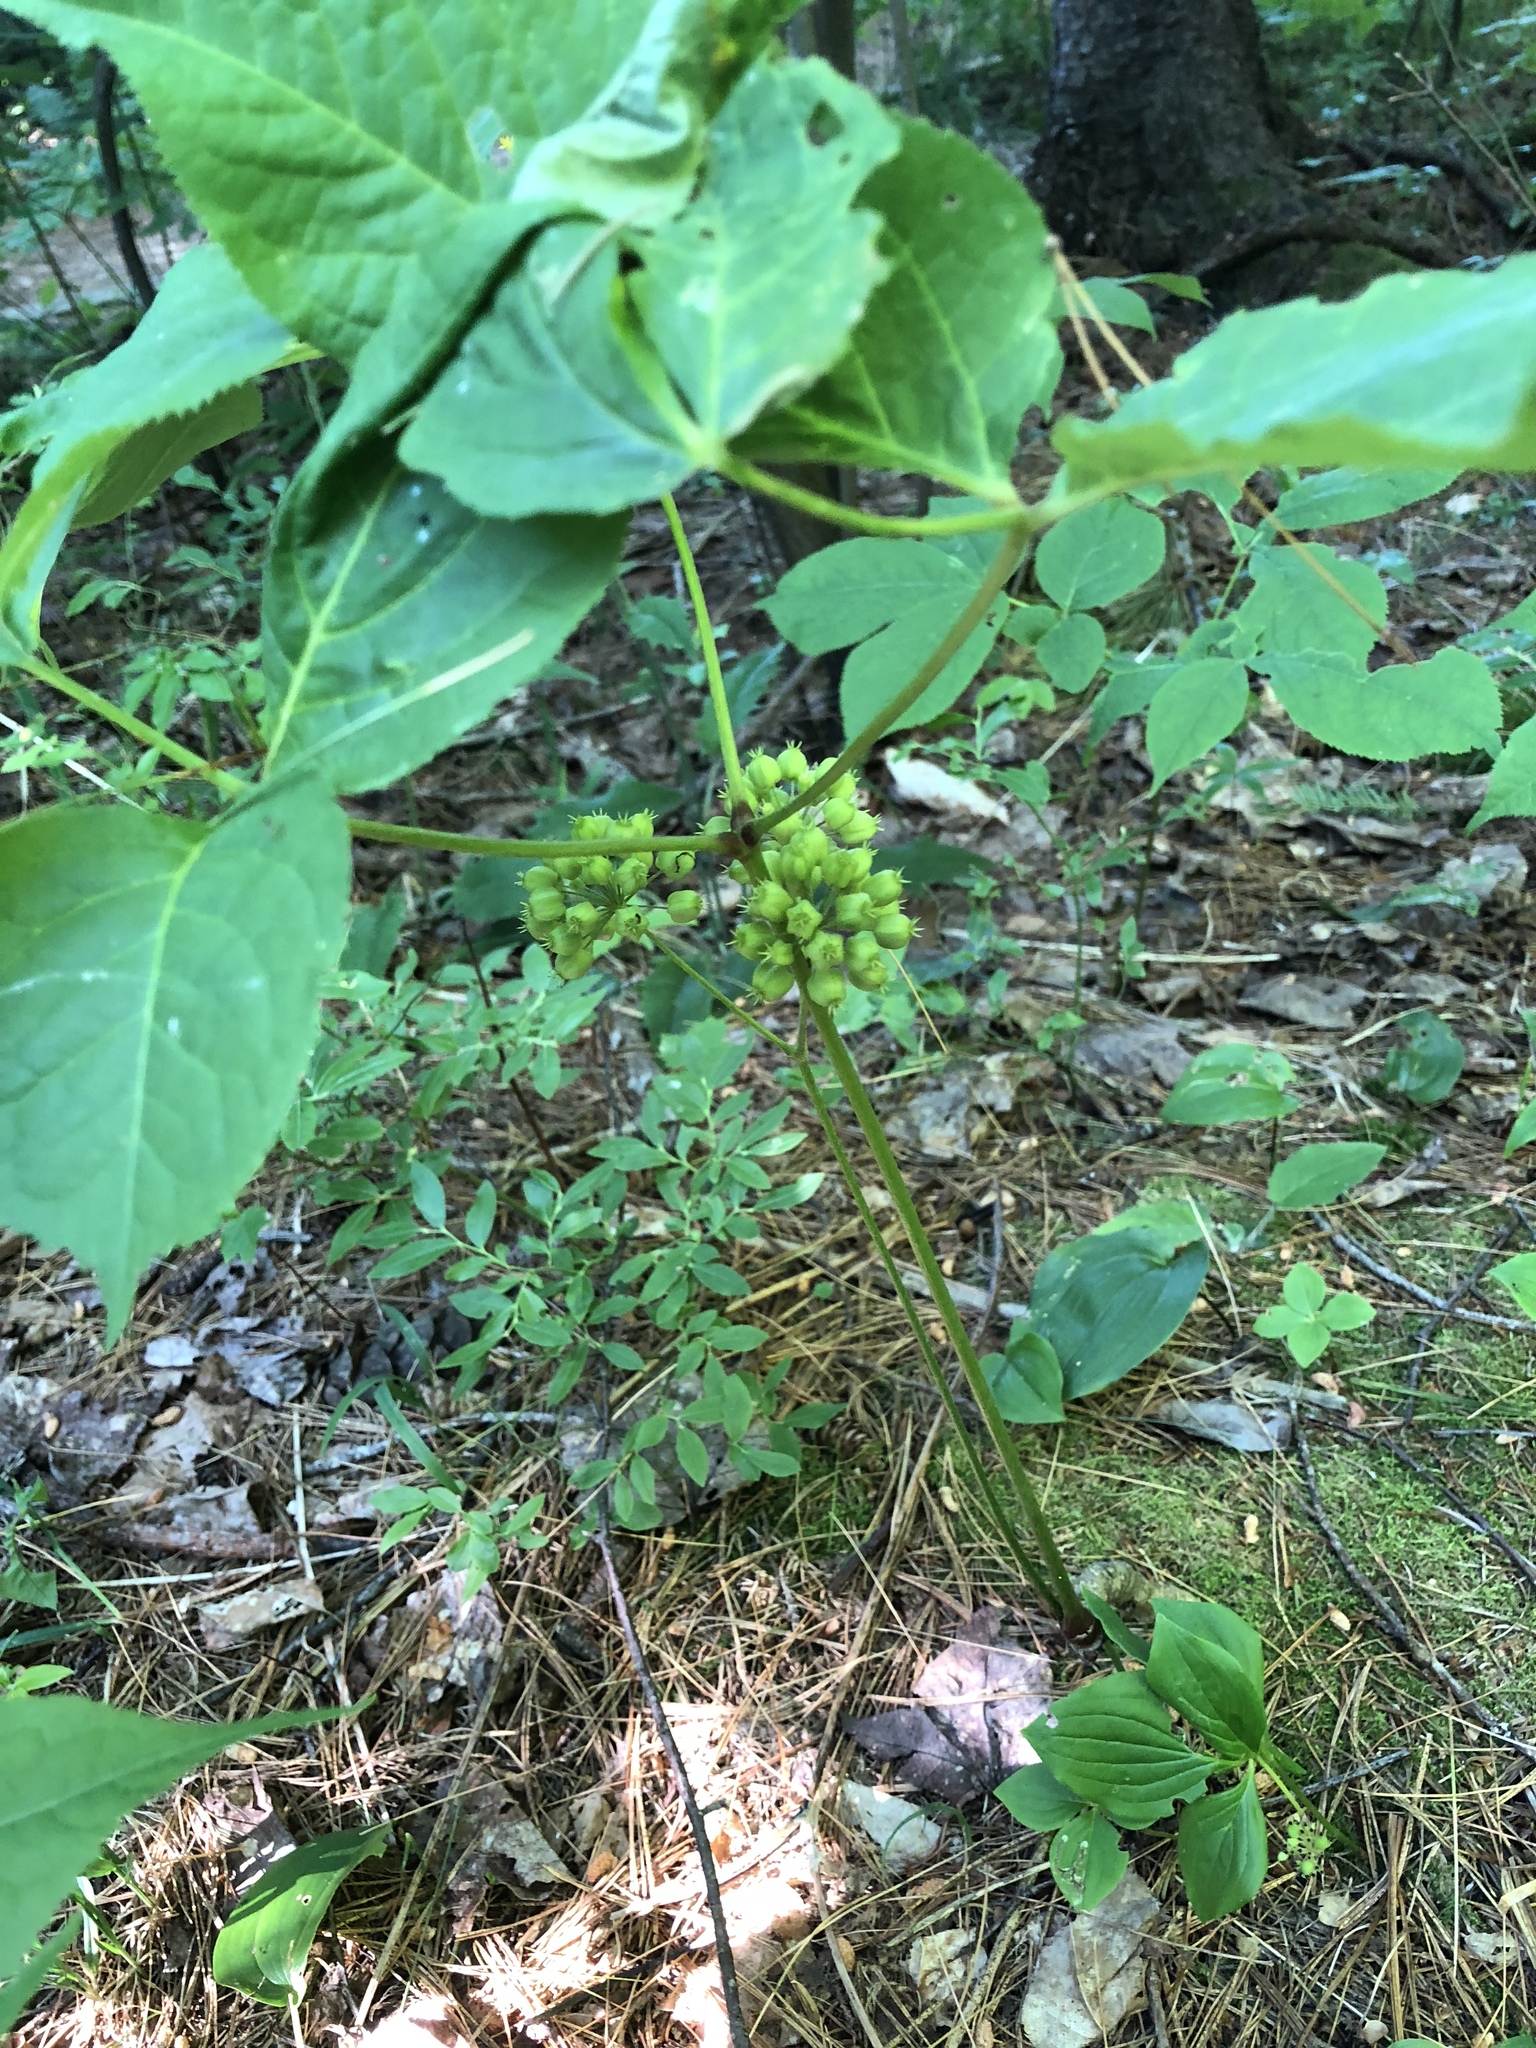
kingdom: Plantae
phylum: Tracheophyta
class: Magnoliopsida
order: Apiales
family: Araliaceae
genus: Aralia
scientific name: Aralia nudicaulis
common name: Wild sarsaparilla
